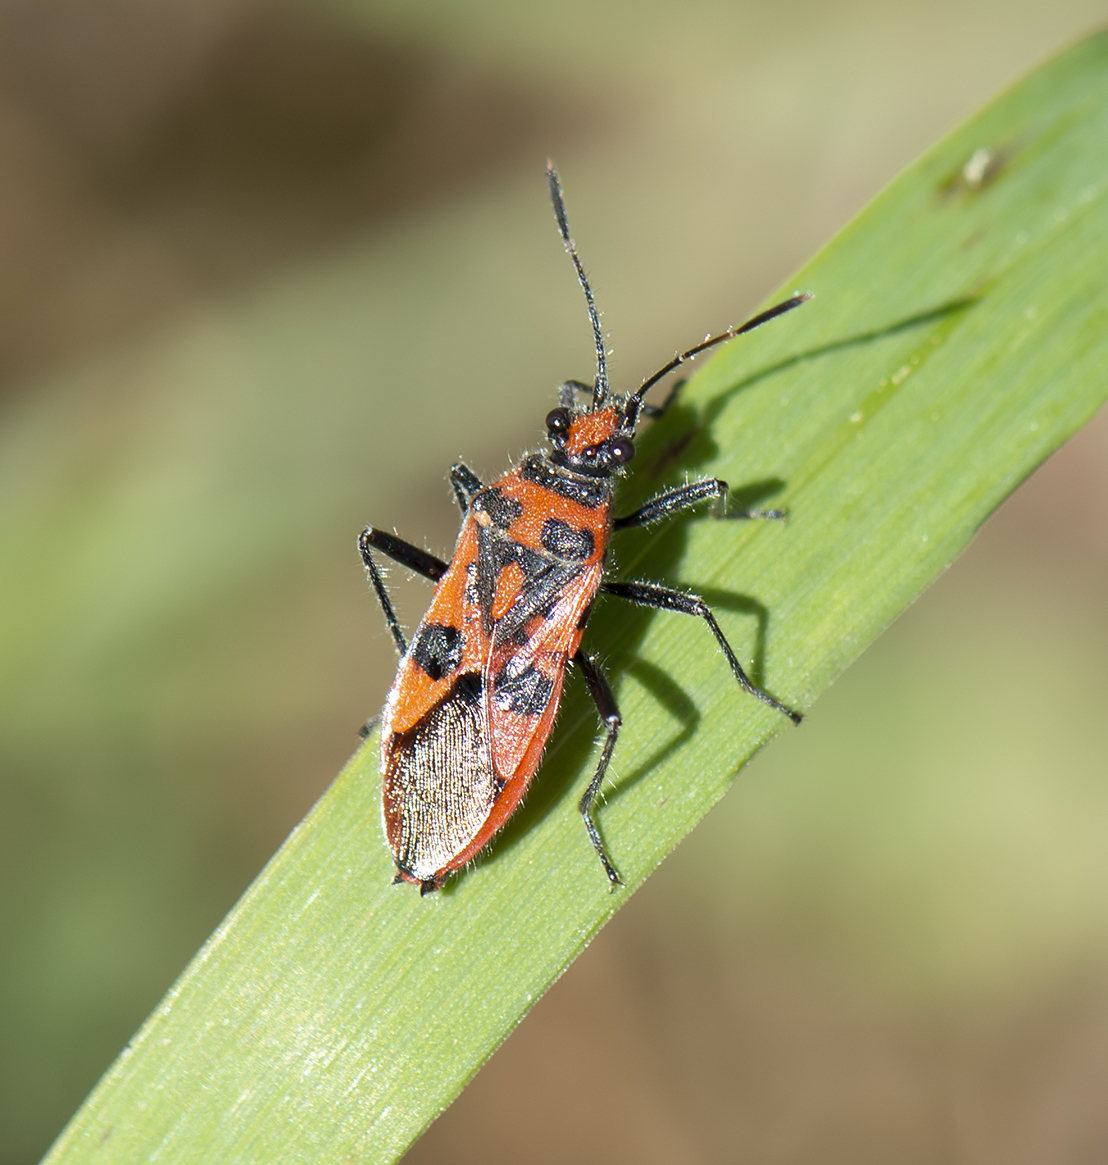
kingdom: Animalia
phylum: Arthropoda
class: Insecta
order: Hemiptera
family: Rhopalidae
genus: Corizus
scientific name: Corizus hyoscyami
